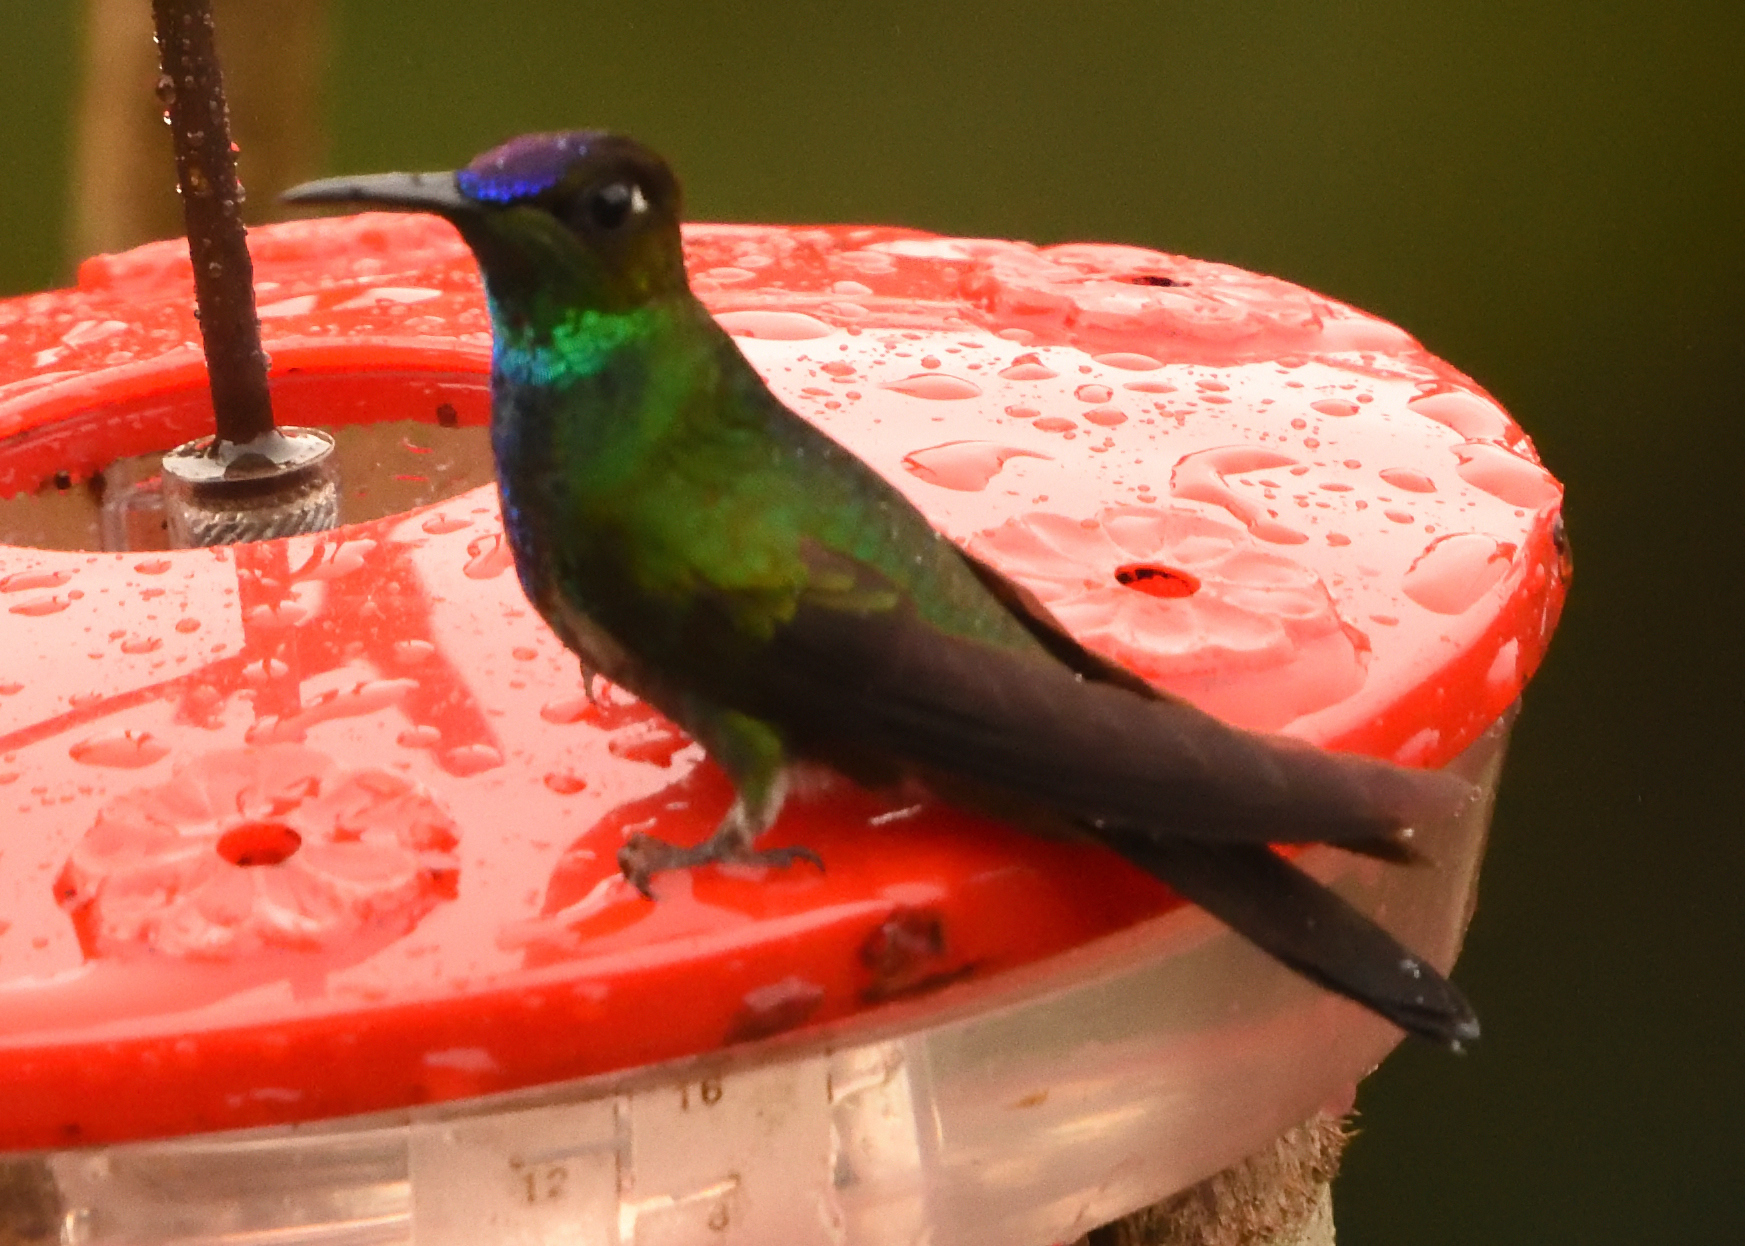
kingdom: Animalia
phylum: Chordata
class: Aves
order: Apodiformes
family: Trochilidae
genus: Heliodoxa
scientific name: Heliodoxa leadbeateri
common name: Violet-fronted brilliant
